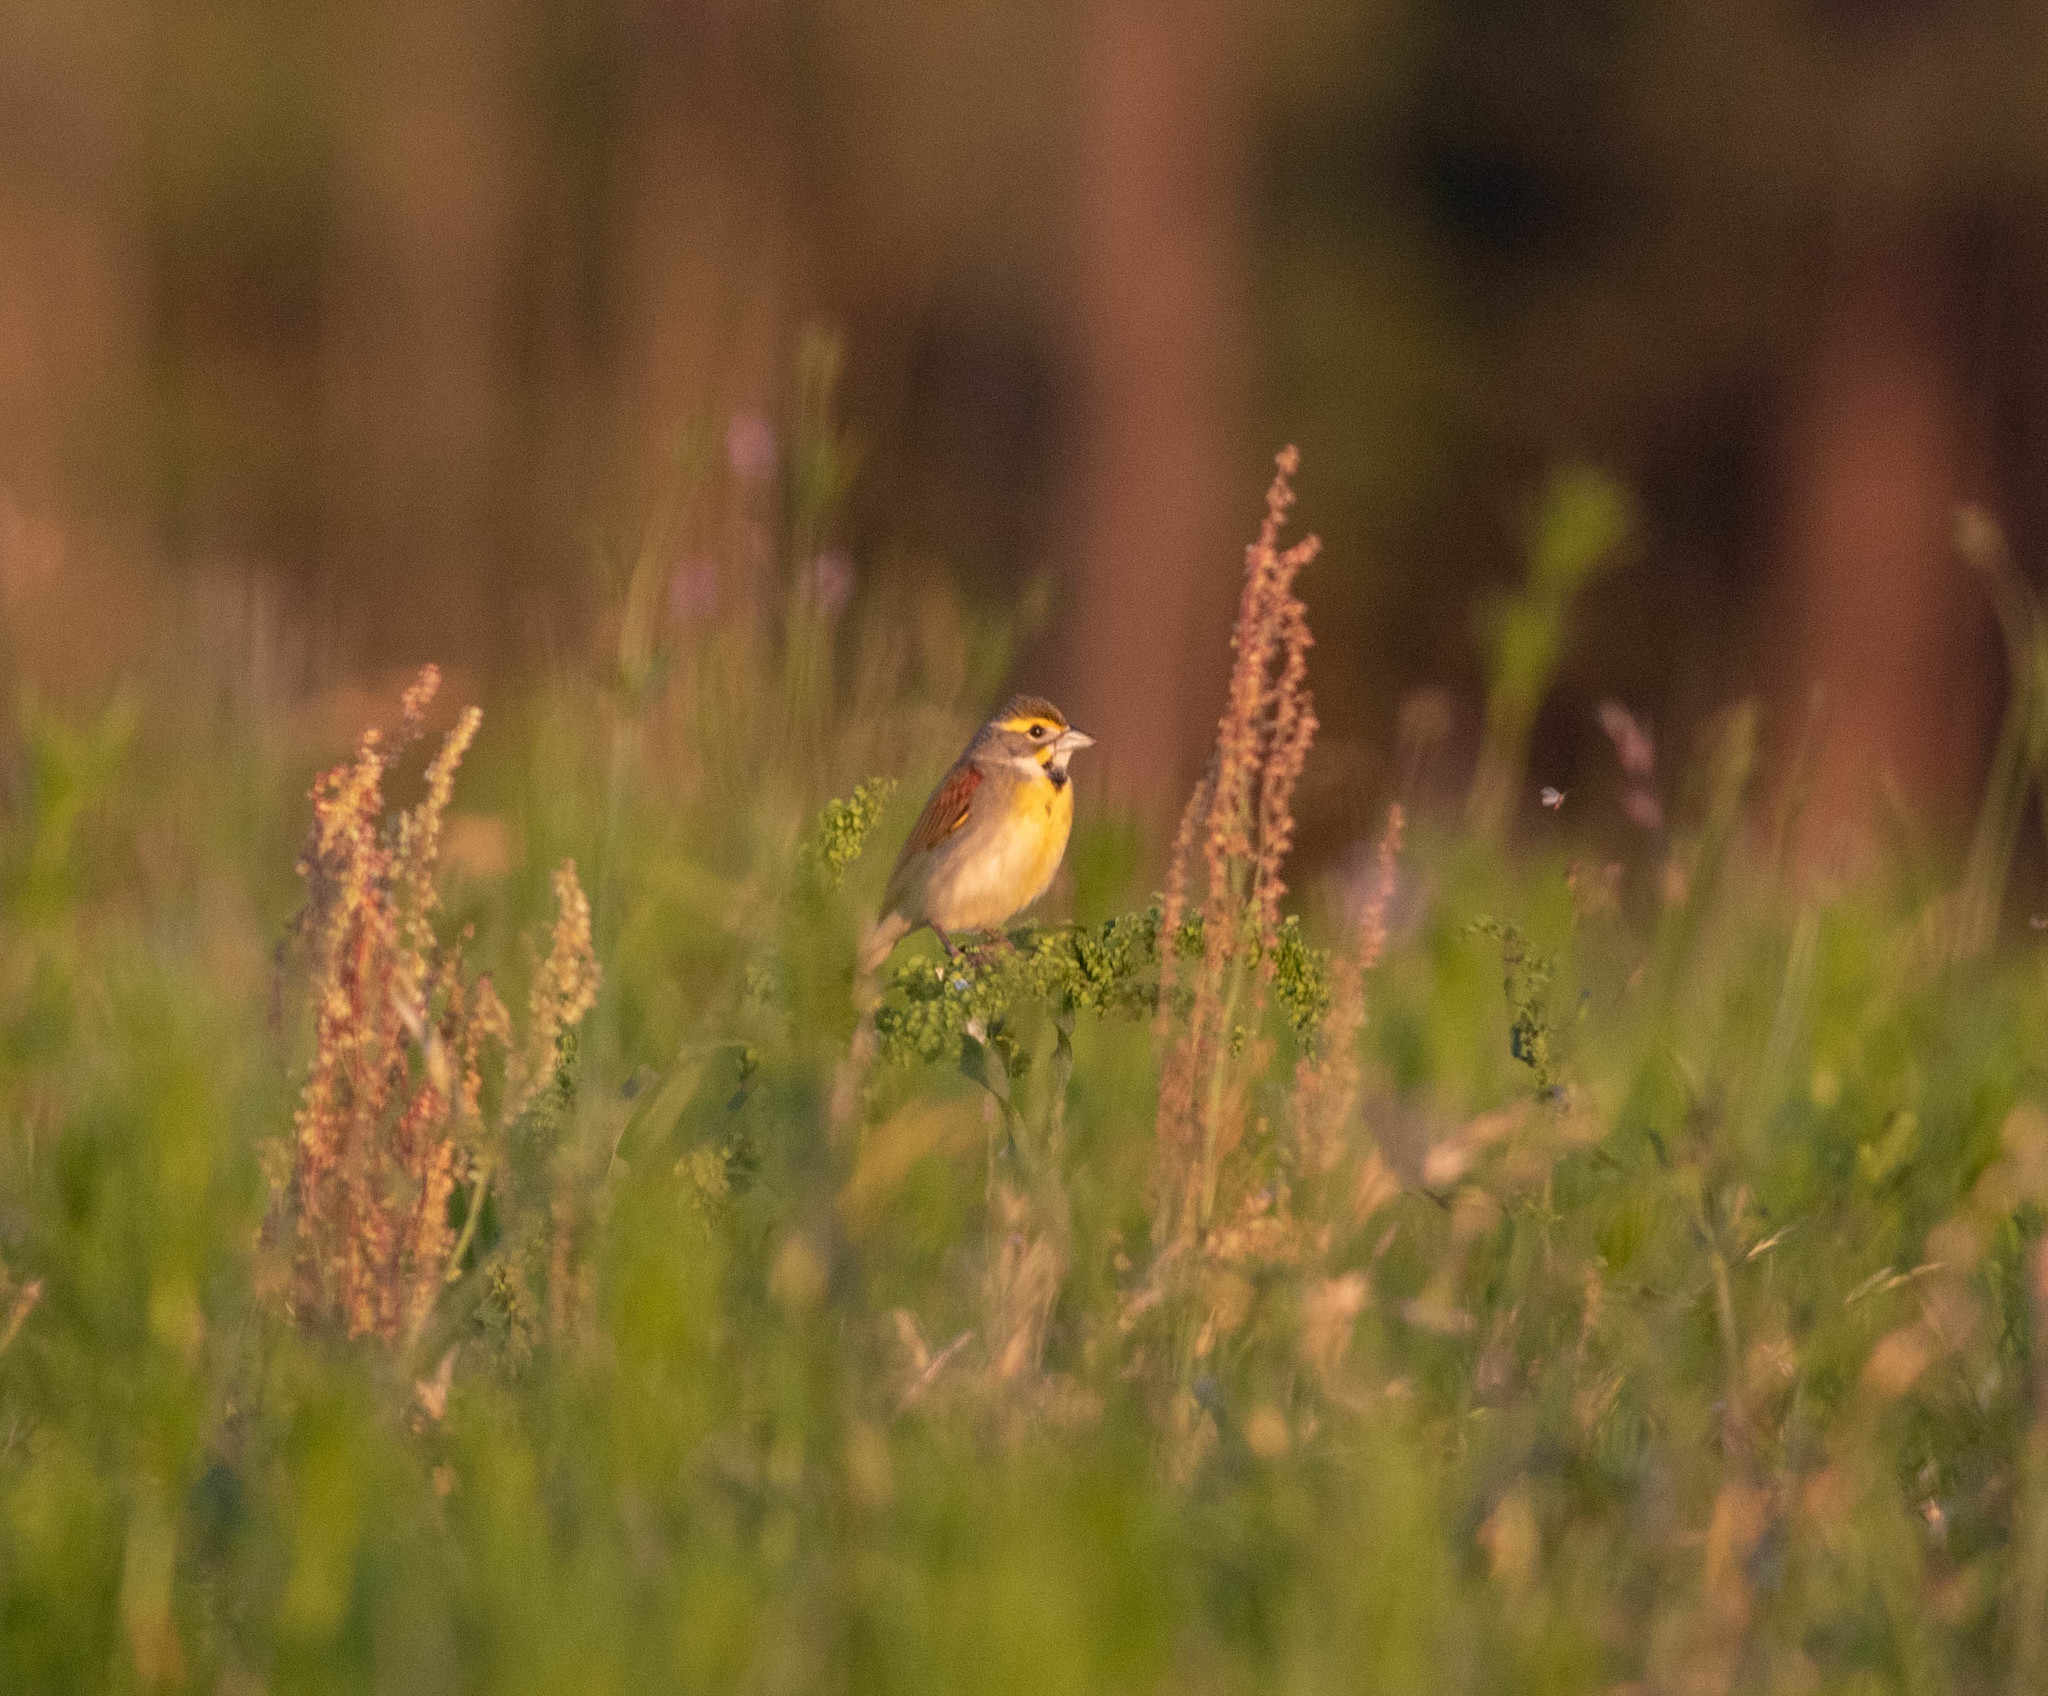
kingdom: Animalia
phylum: Chordata
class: Aves
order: Passeriformes
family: Cardinalidae
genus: Spiza
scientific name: Spiza americana
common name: Dickcissel
